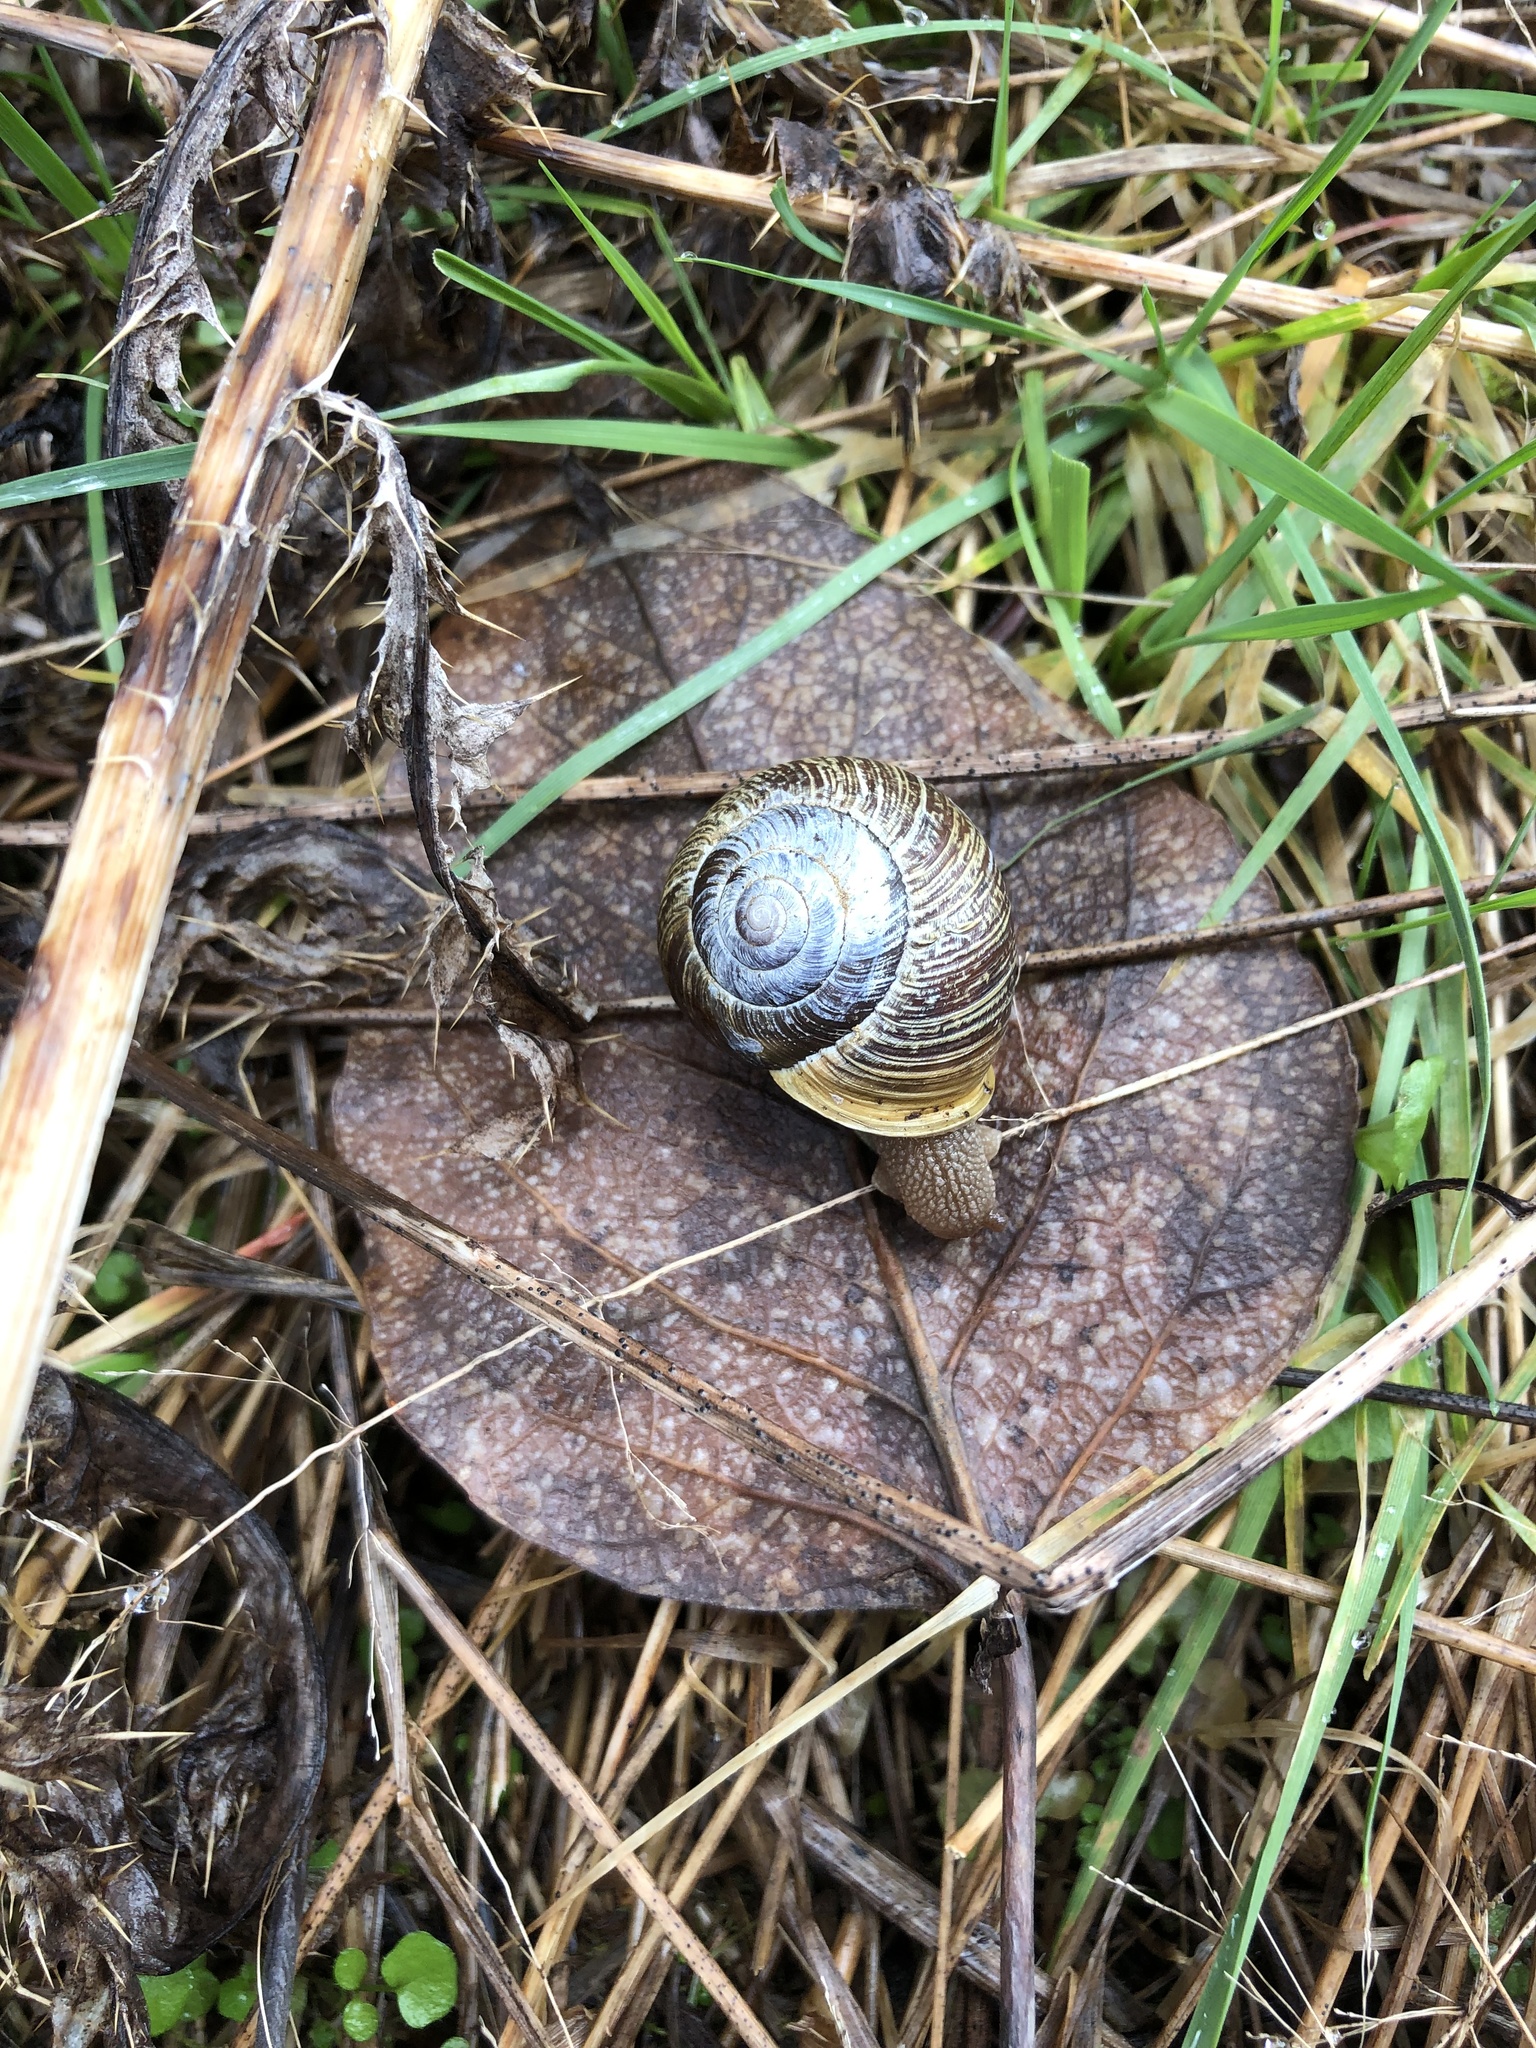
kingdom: Animalia
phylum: Mollusca
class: Gastropoda
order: Stylommatophora
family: Polygyridae
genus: Allogona
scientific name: Allogona townsendiana
